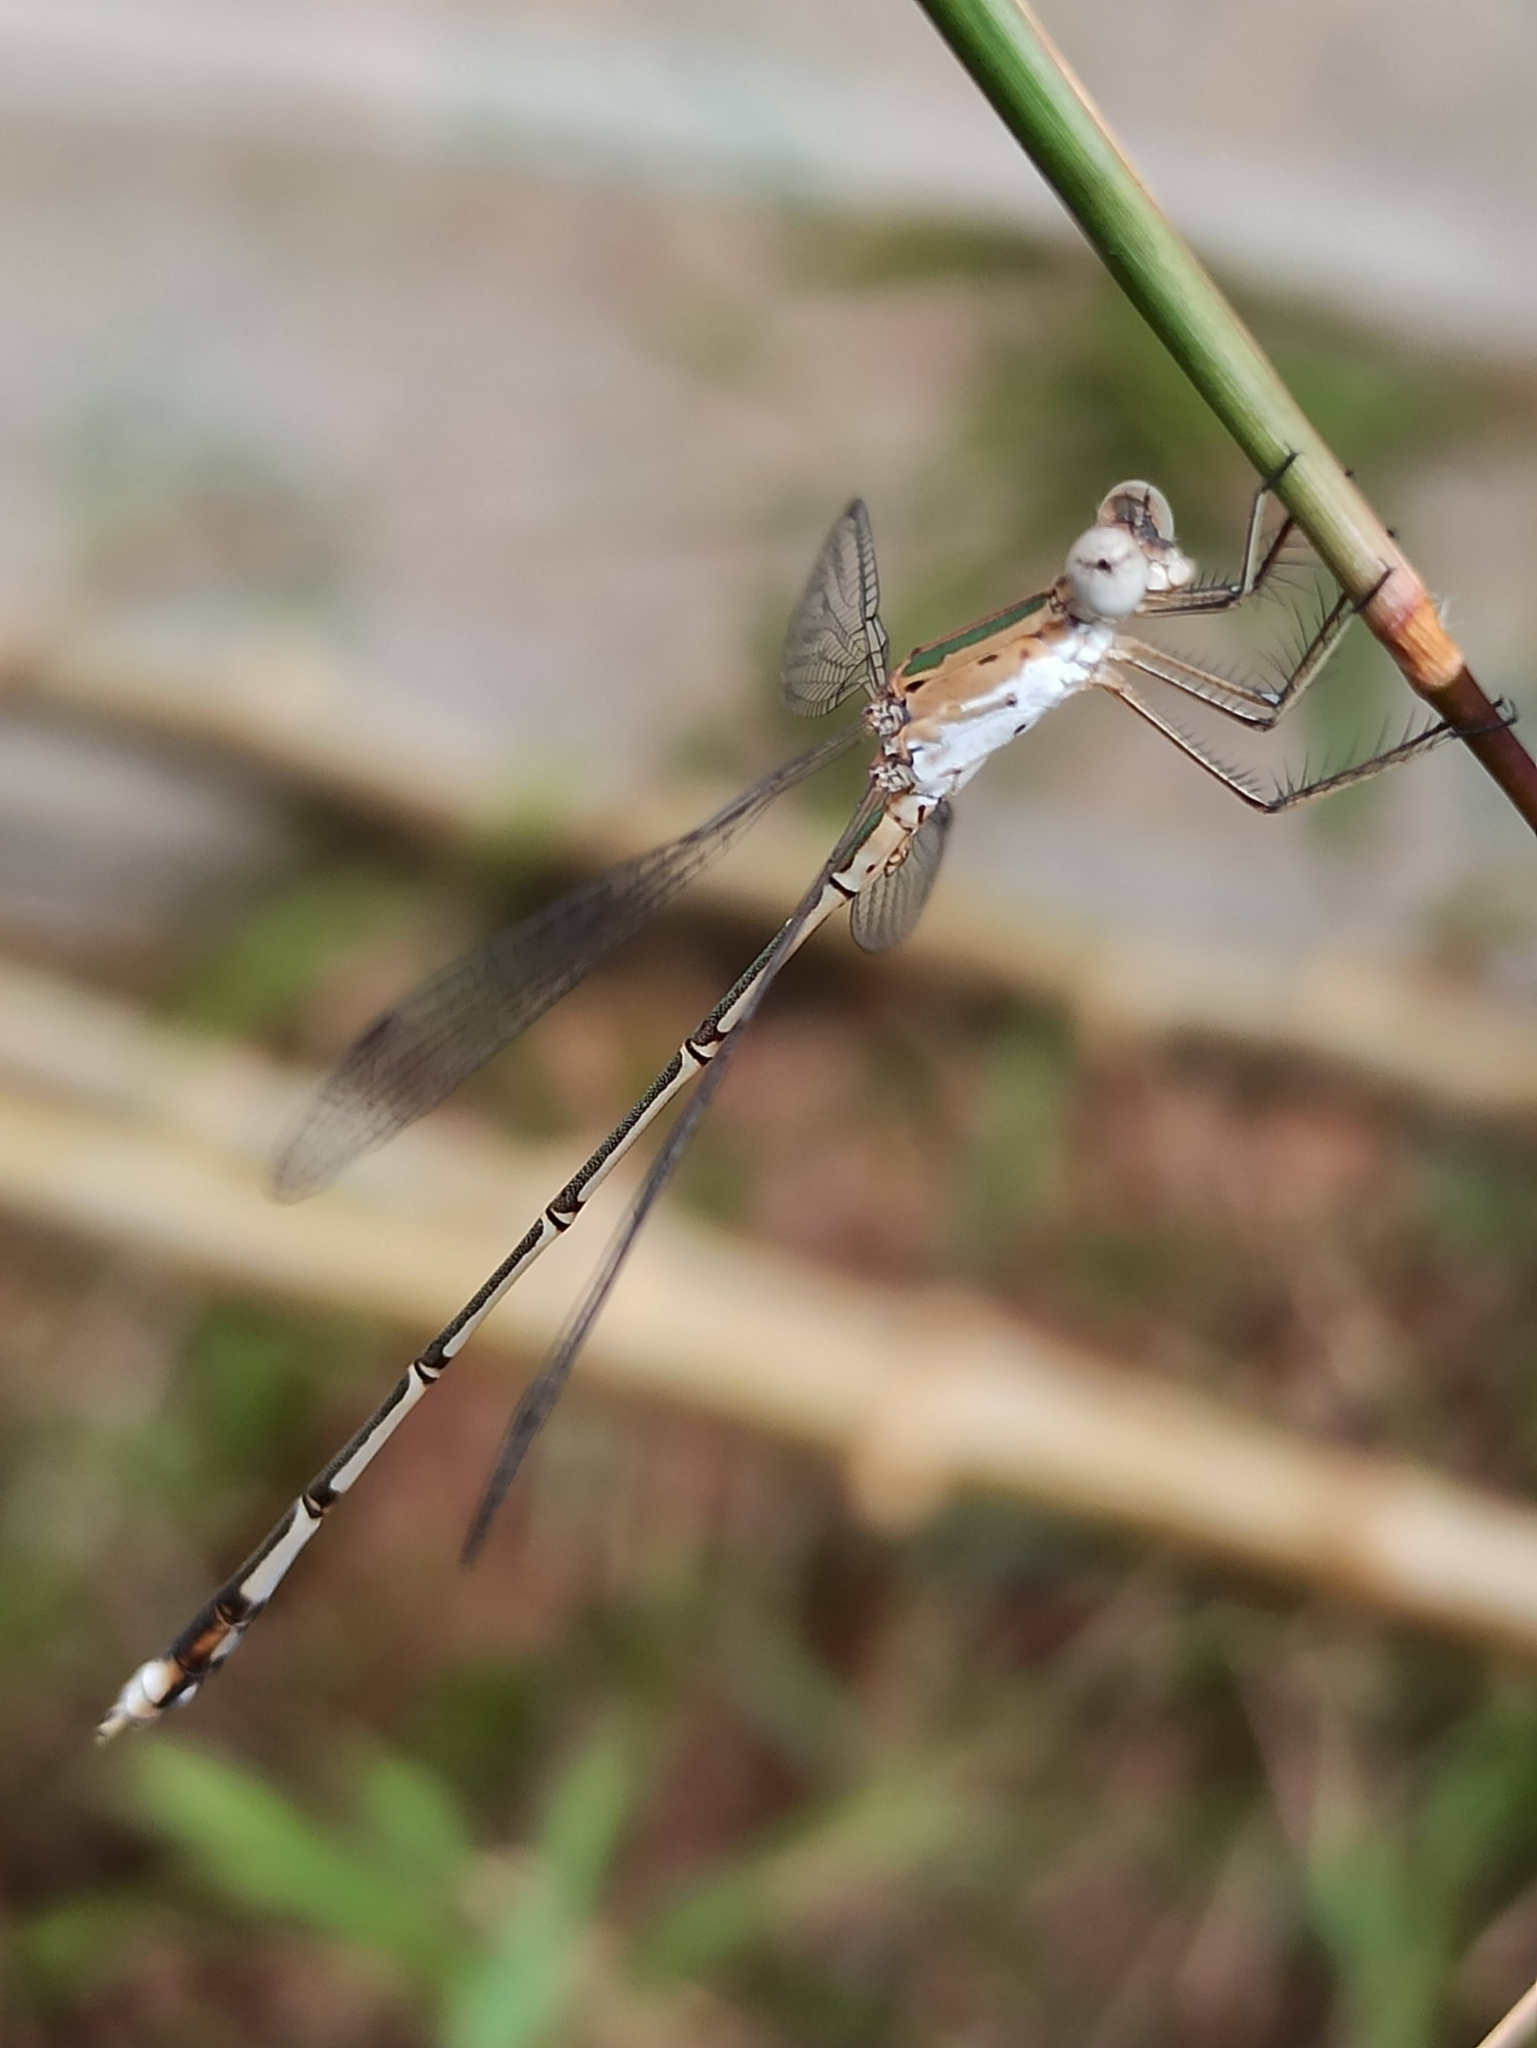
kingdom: Animalia
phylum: Arthropoda
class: Insecta
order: Odonata
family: Lestidae
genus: Lestes
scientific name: Lestes elatus
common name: Emerald spreadwing
